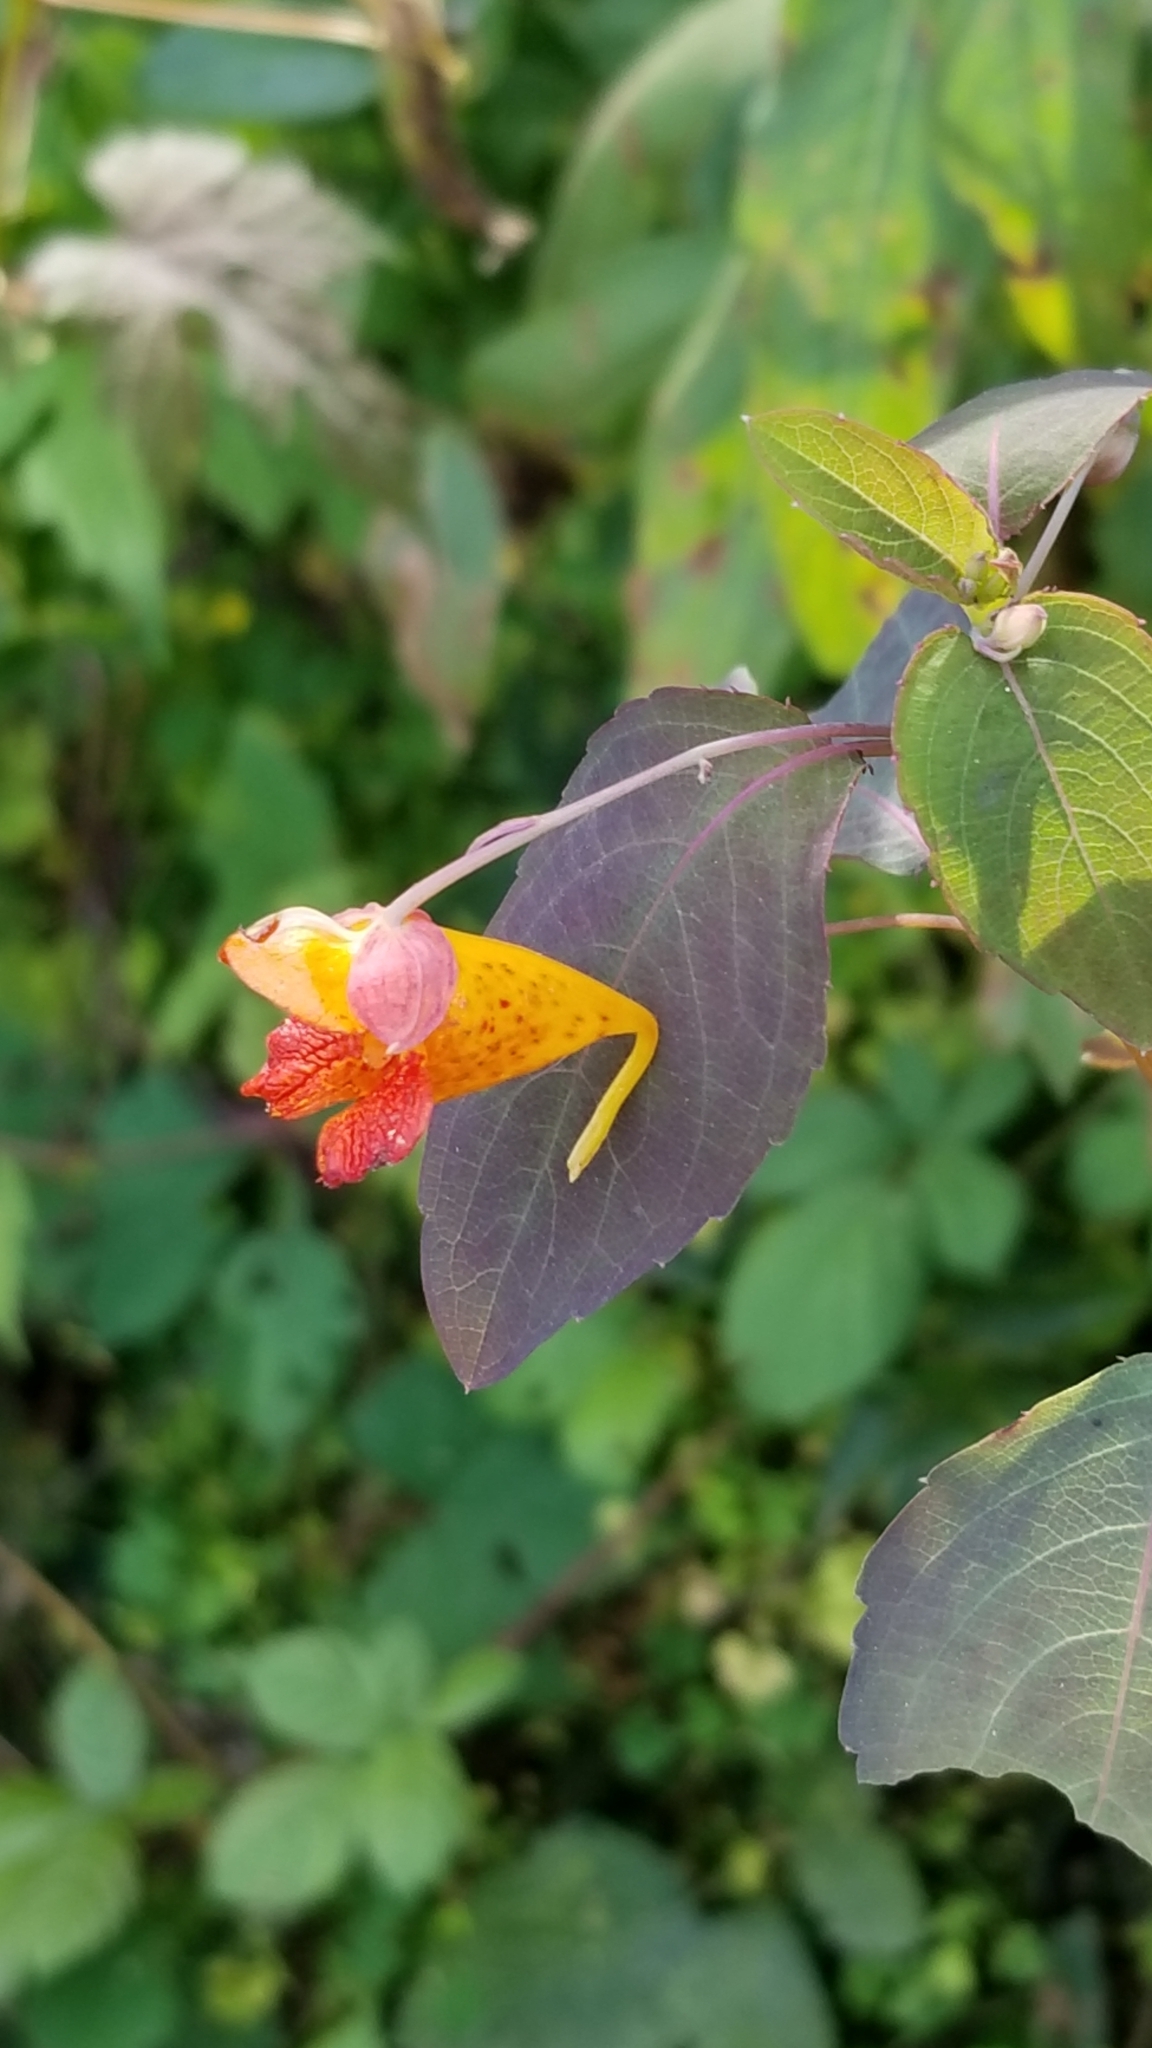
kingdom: Plantae
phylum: Tracheophyta
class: Magnoliopsida
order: Ericales
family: Balsaminaceae
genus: Impatiens
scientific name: Impatiens capensis
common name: Orange balsam
